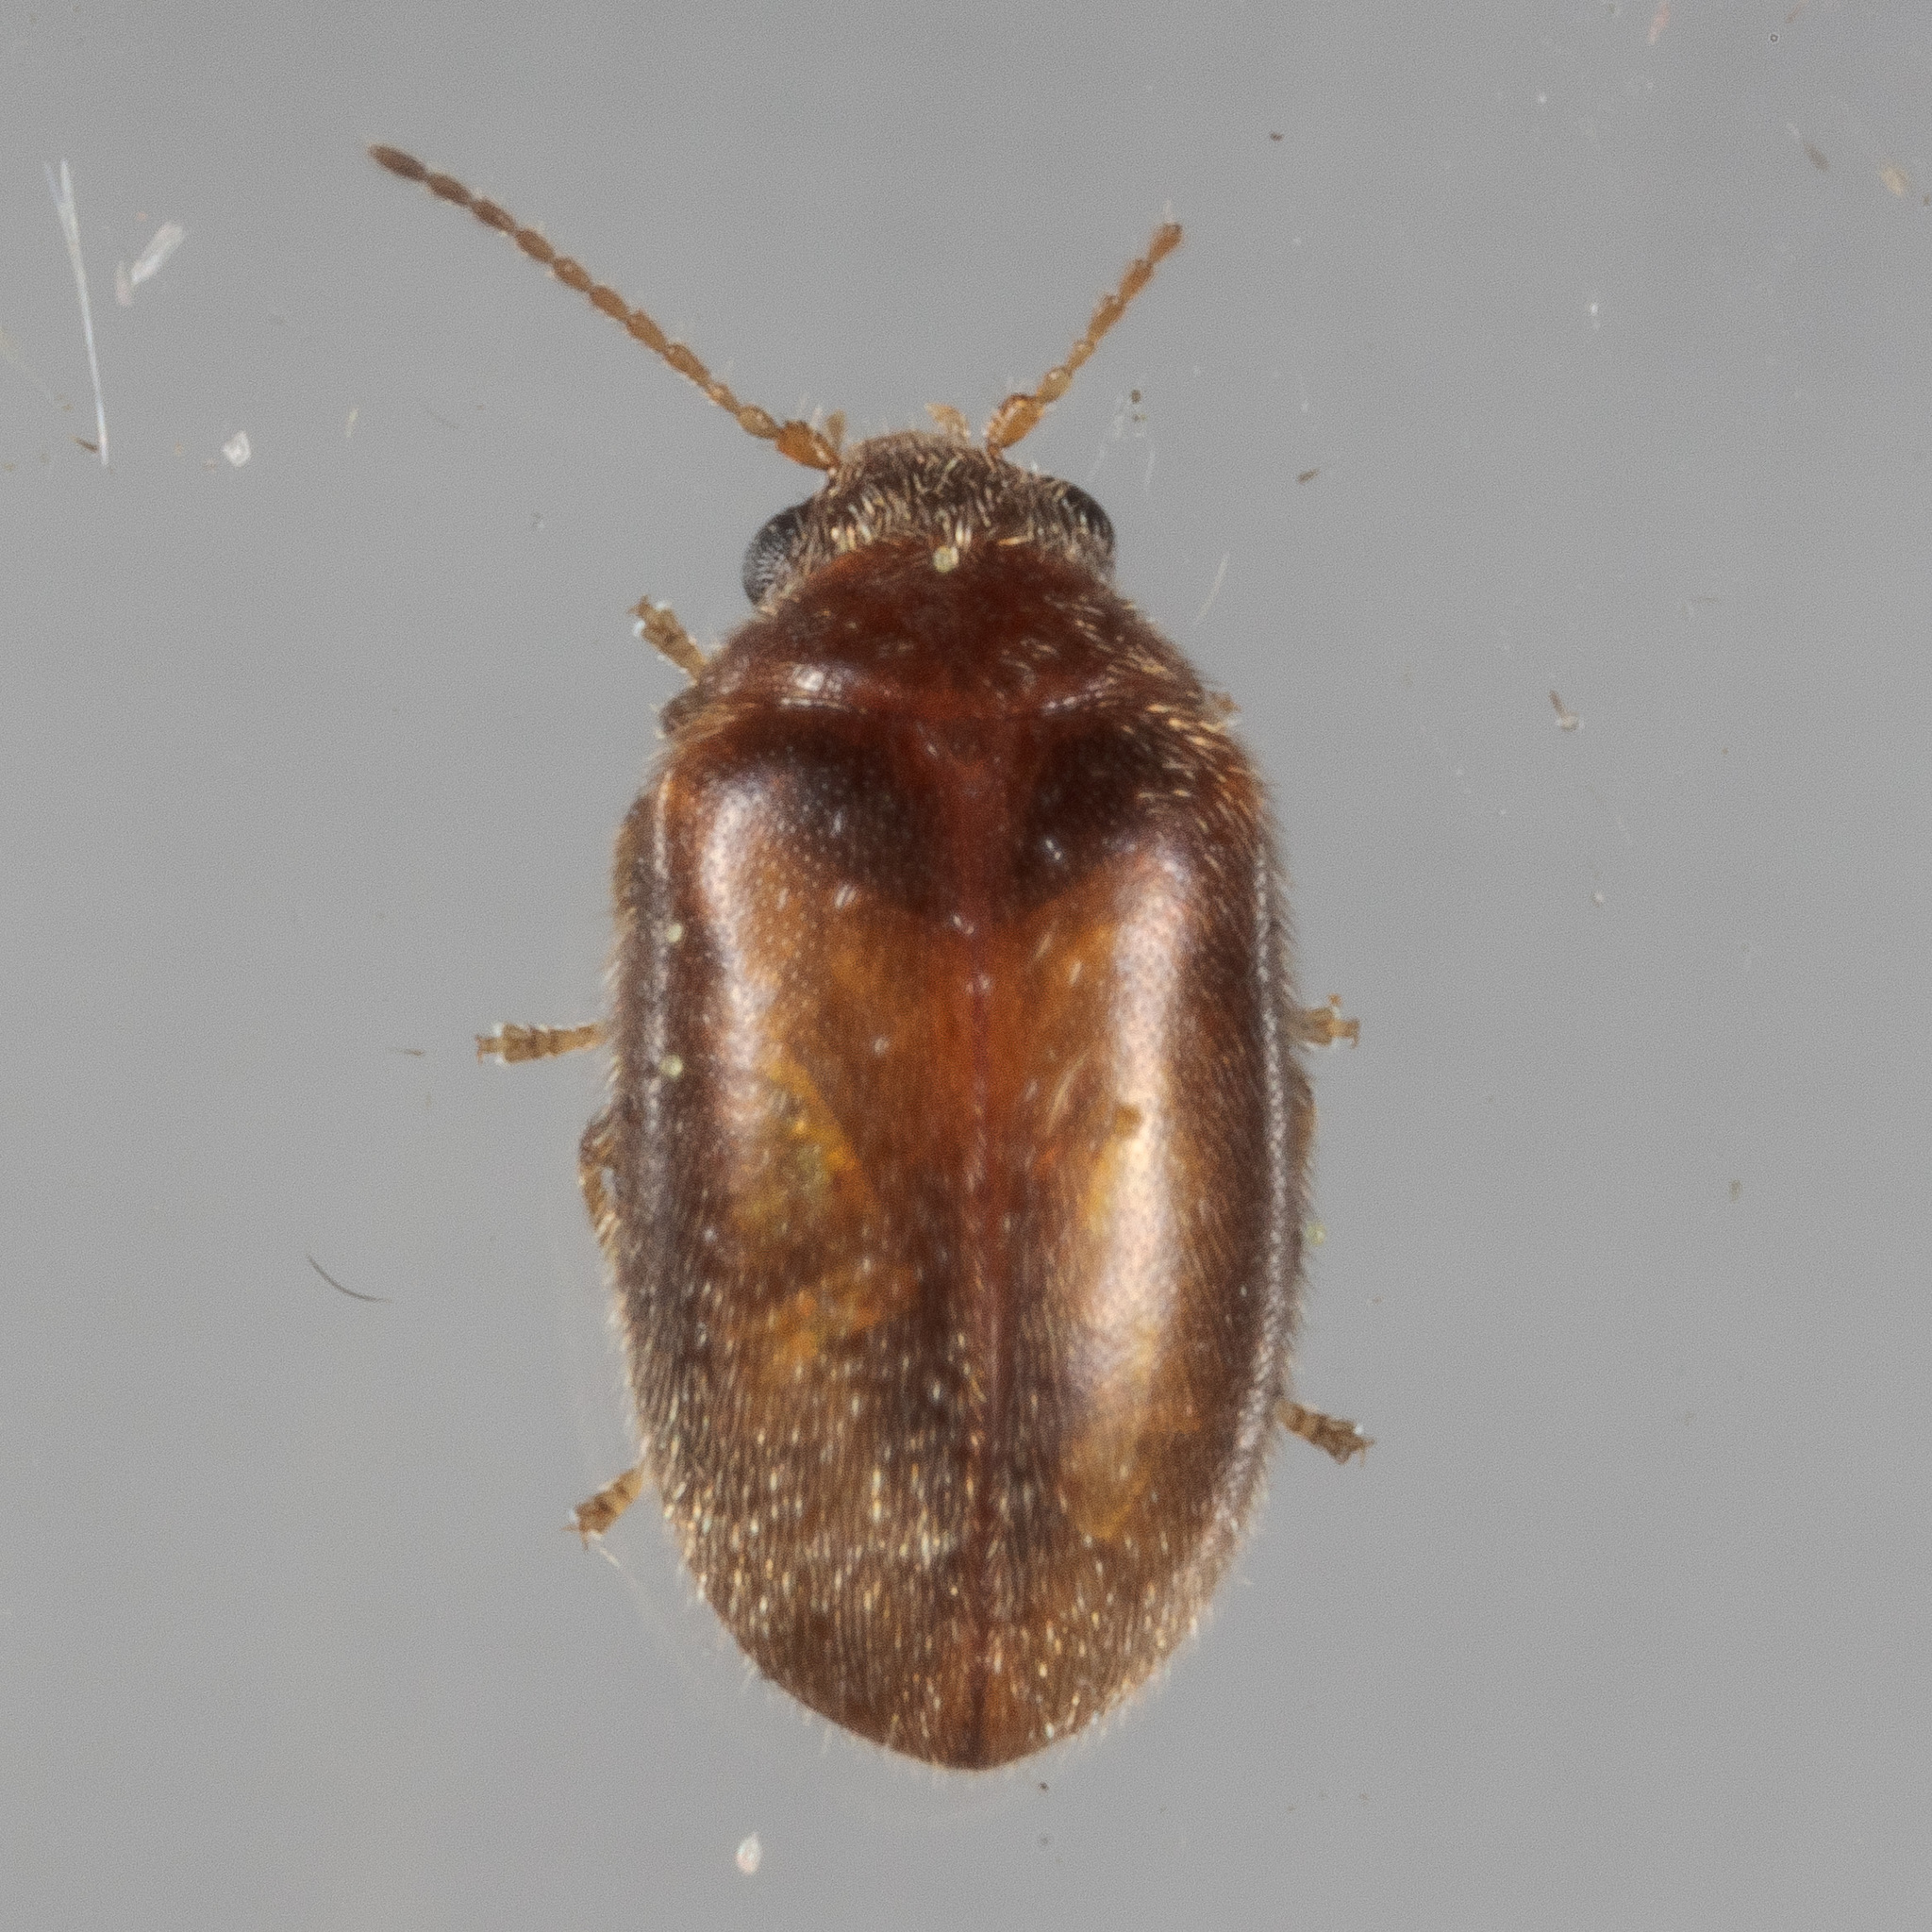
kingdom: Animalia
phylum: Arthropoda
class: Insecta
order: Coleoptera
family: Scirtidae
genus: Contacyphon
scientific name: Contacyphon
